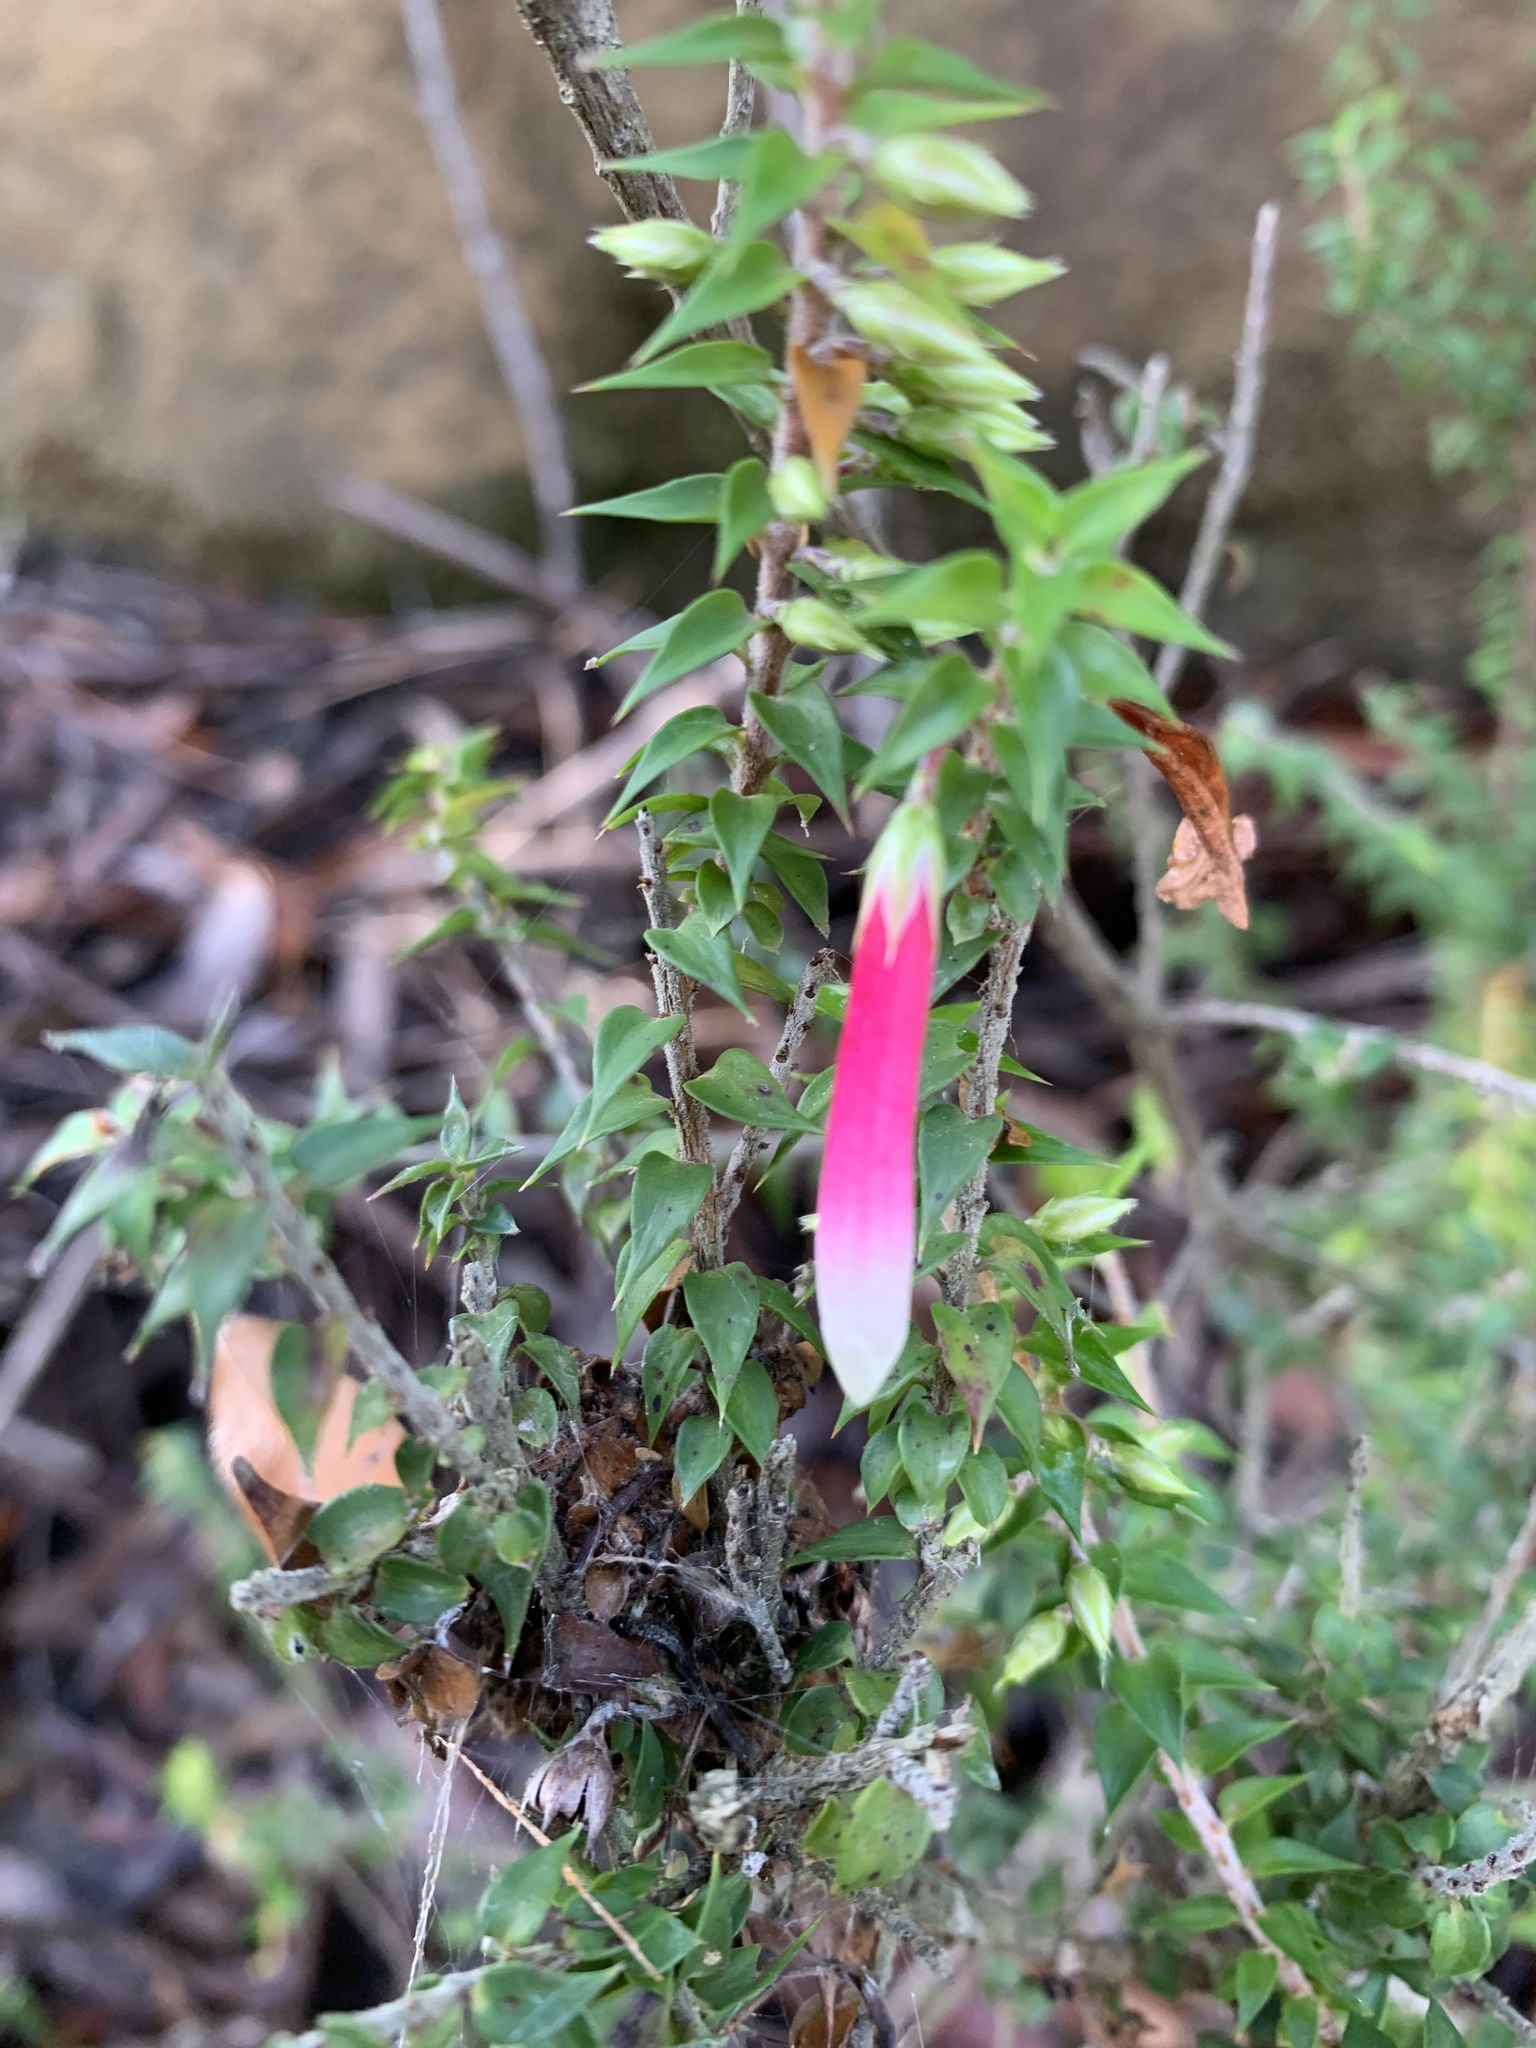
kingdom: Plantae
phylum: Tracheophyta
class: Magnoliopsida
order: Ericales
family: Ericaceae
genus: Epacris
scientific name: Epacris longiflora
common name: Fuchsia-heath
